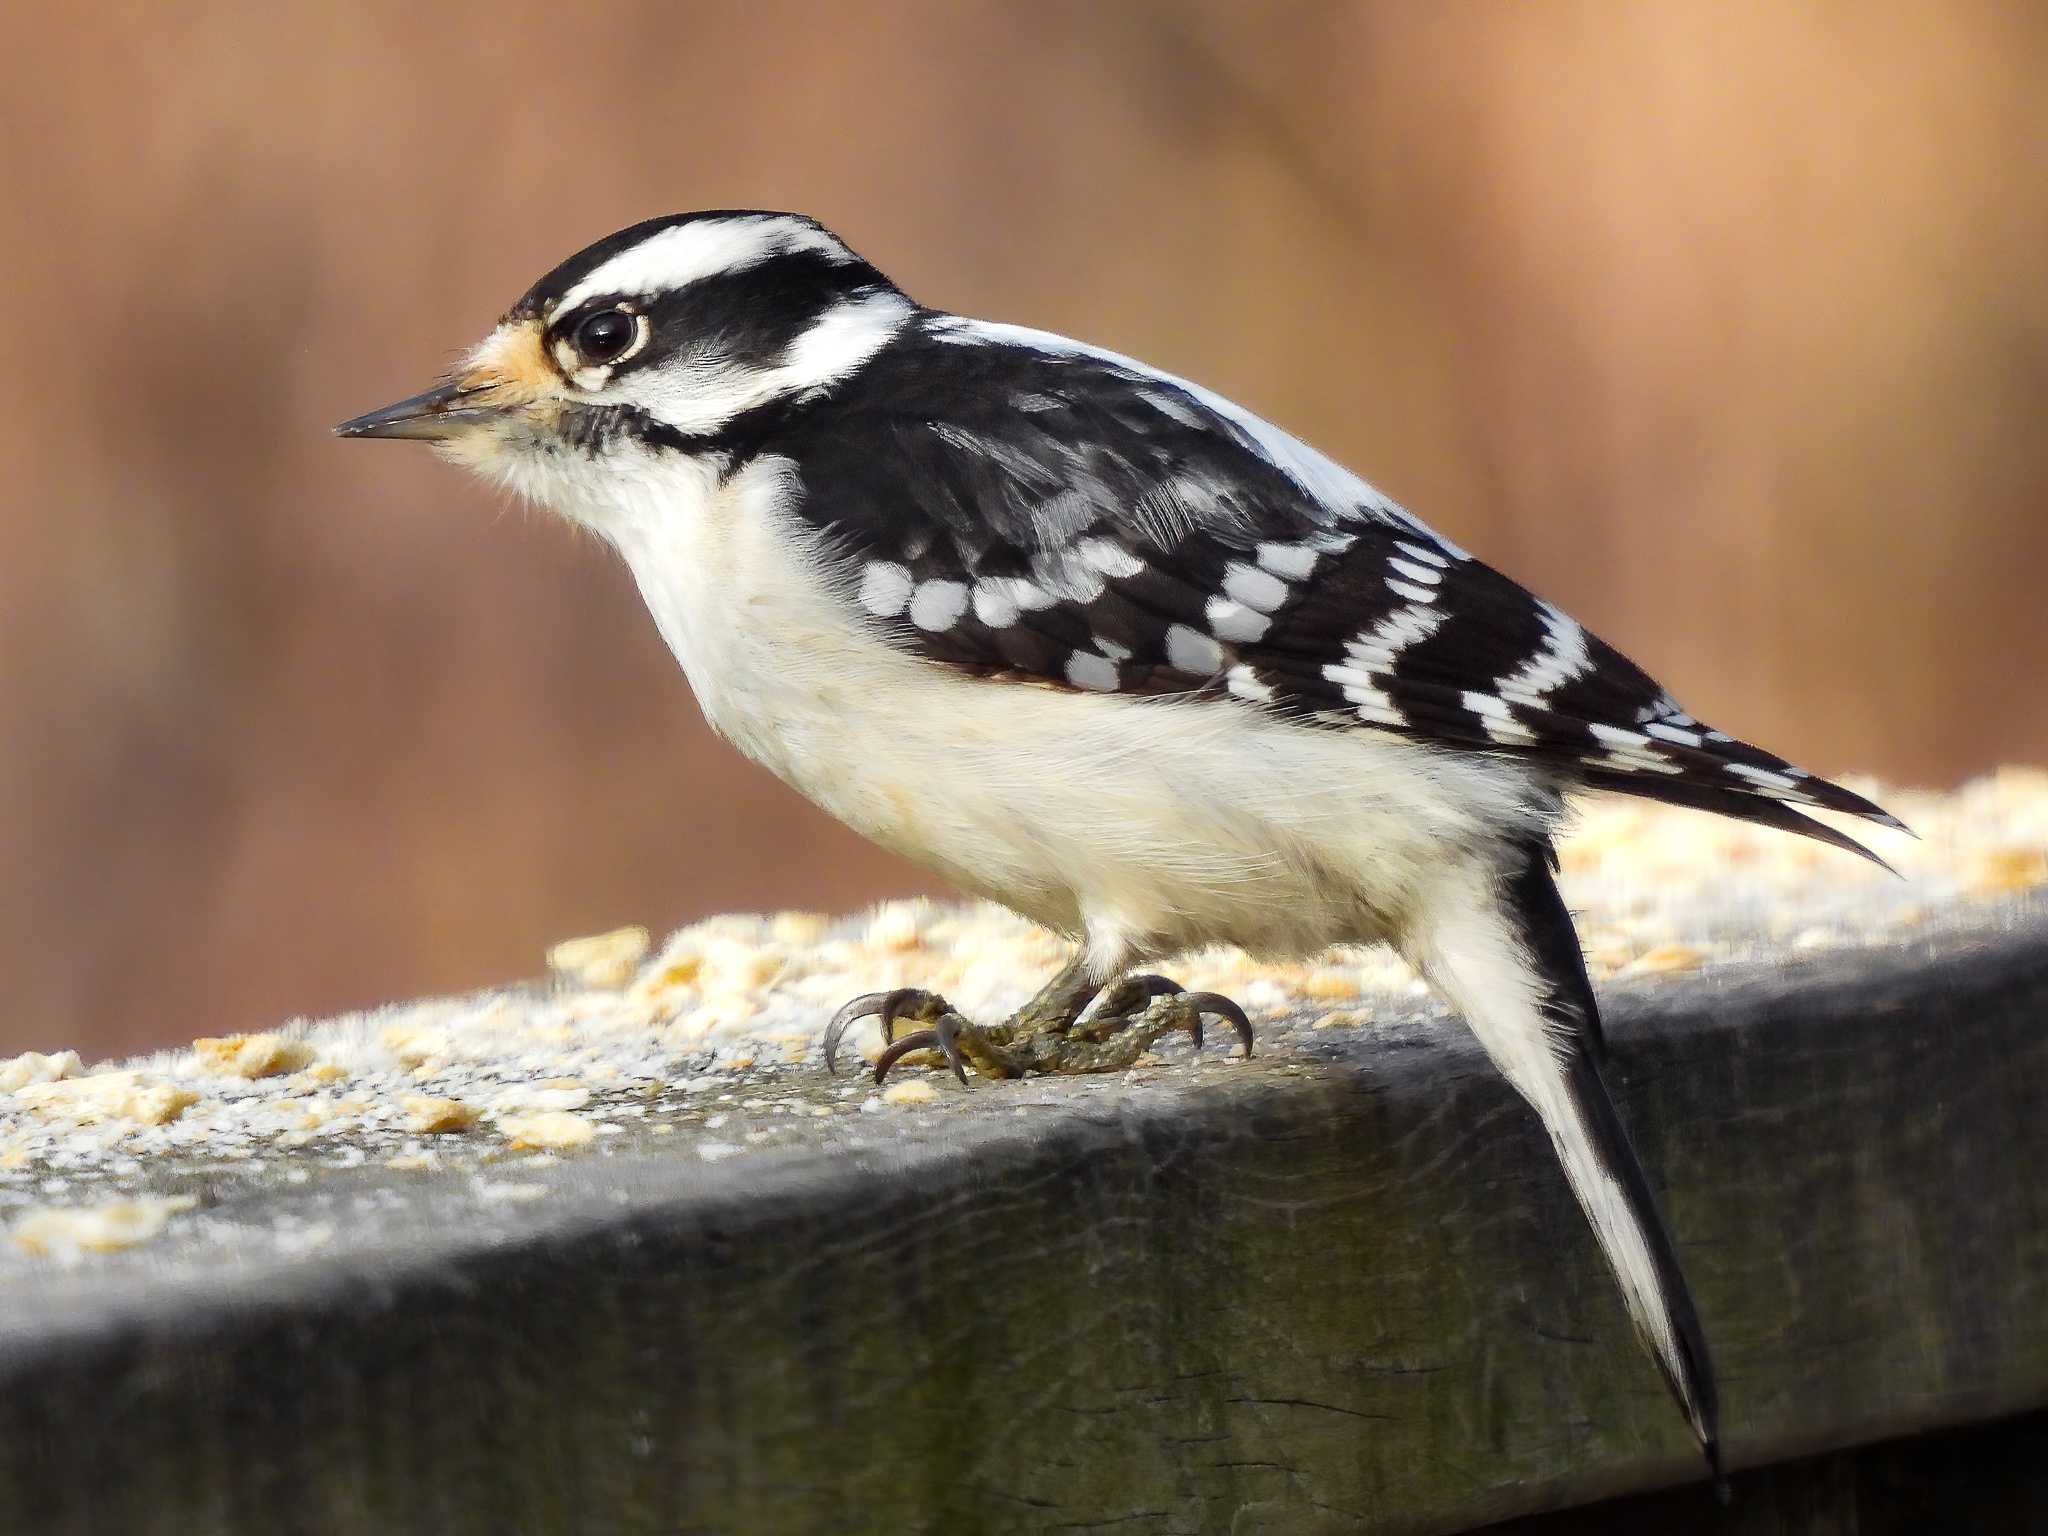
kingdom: Animalia
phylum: Chordata
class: Aves
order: Piciformes
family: Picidae
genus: Dryobates
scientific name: Dryobates pubescens
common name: Downy woodpecker
